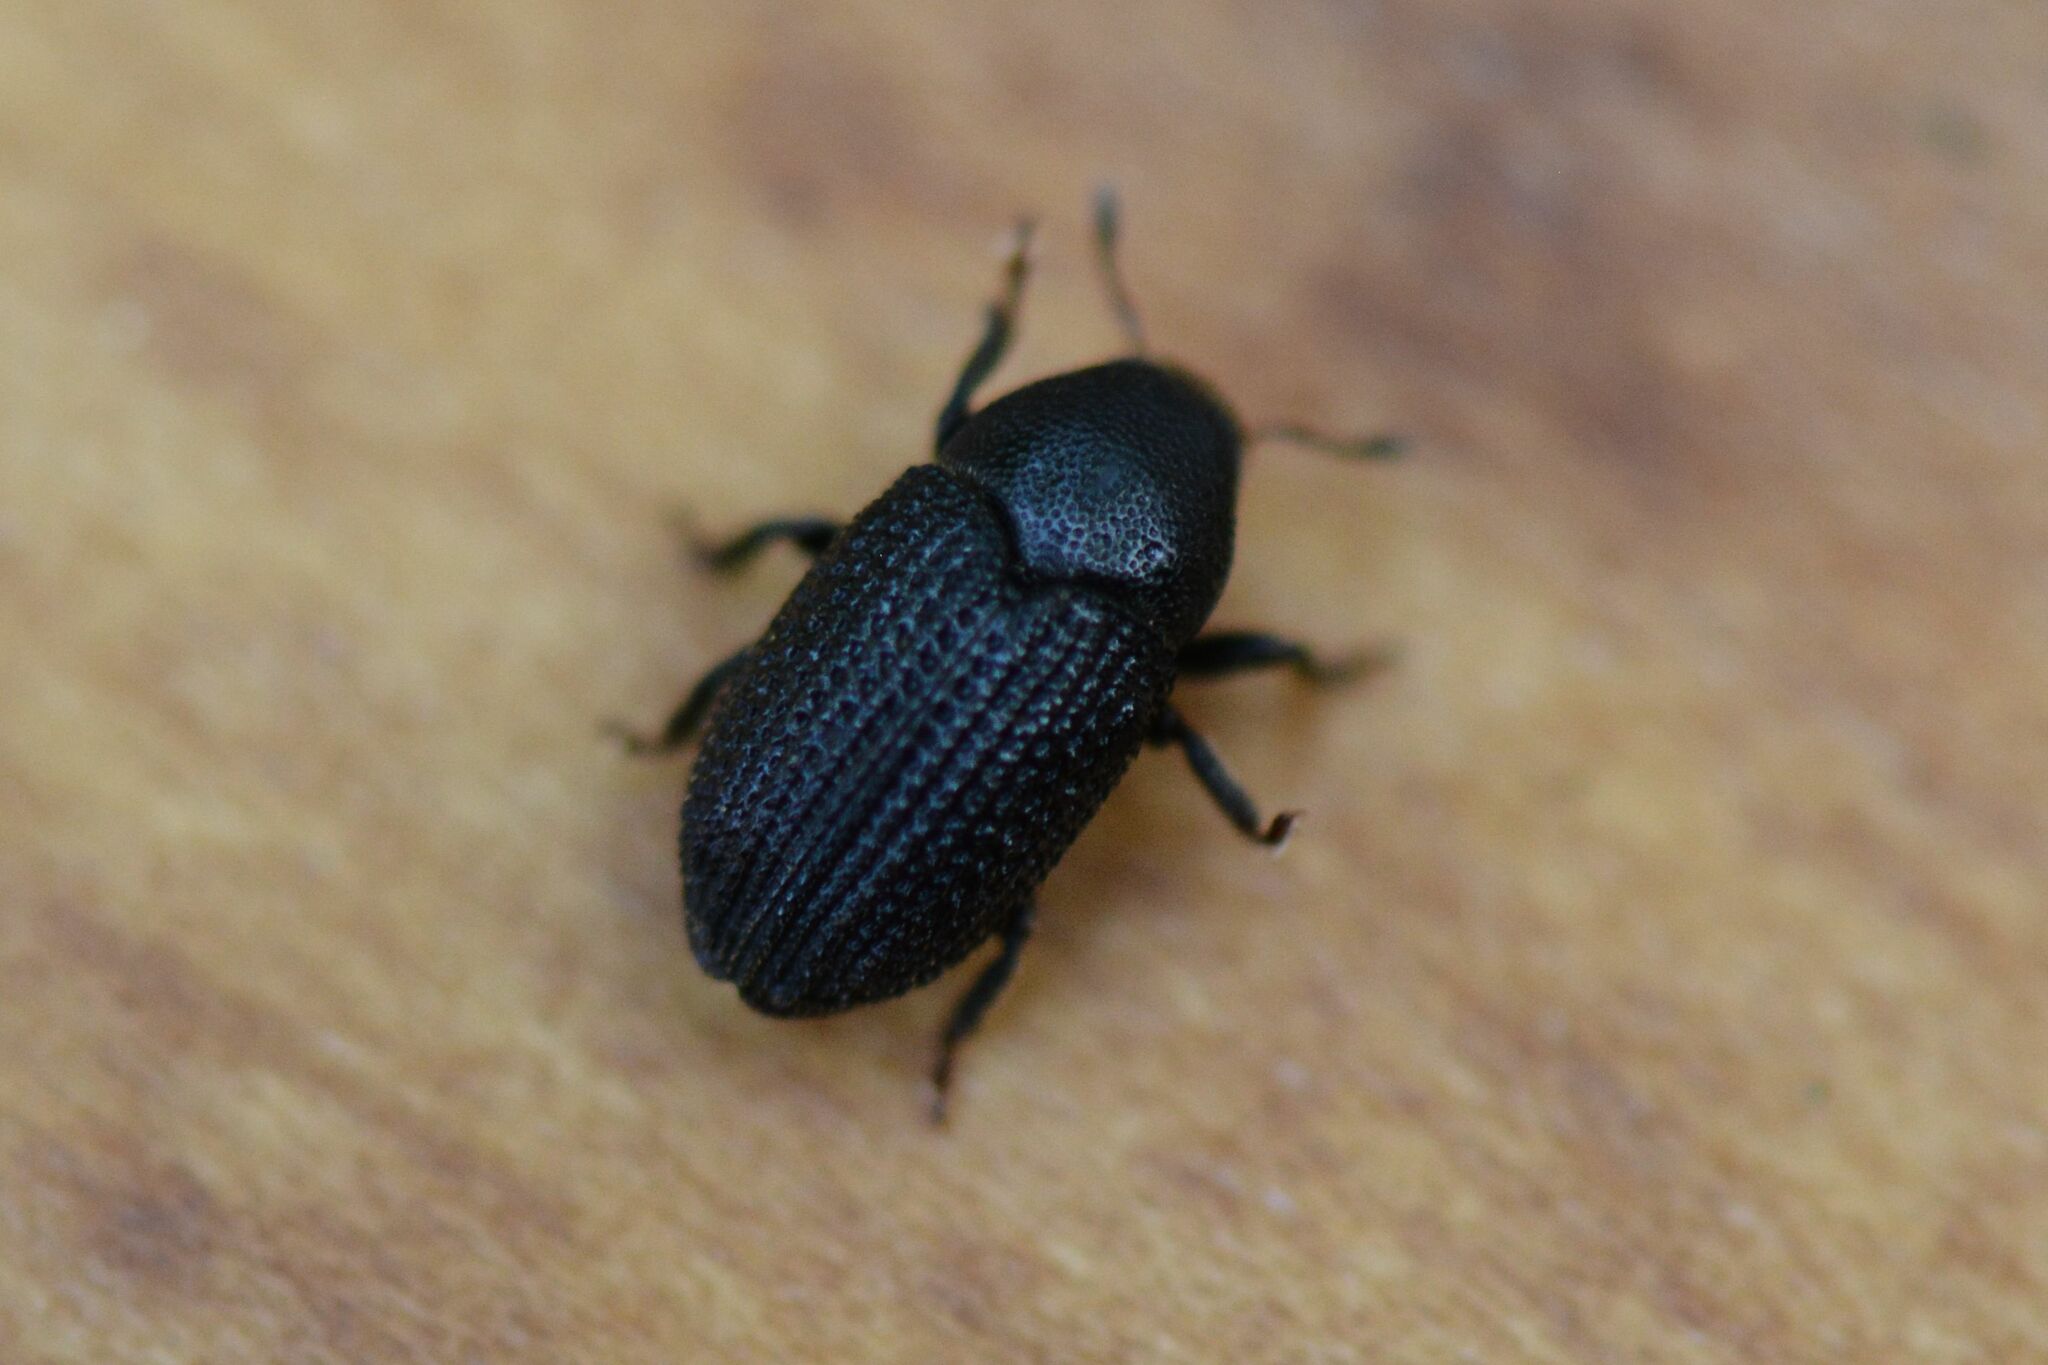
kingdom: Animalia
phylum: Arthropoda
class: Insecta
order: Coleoptera
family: Curculionidae
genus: Hylesinus
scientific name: Hylesinus crenatus
